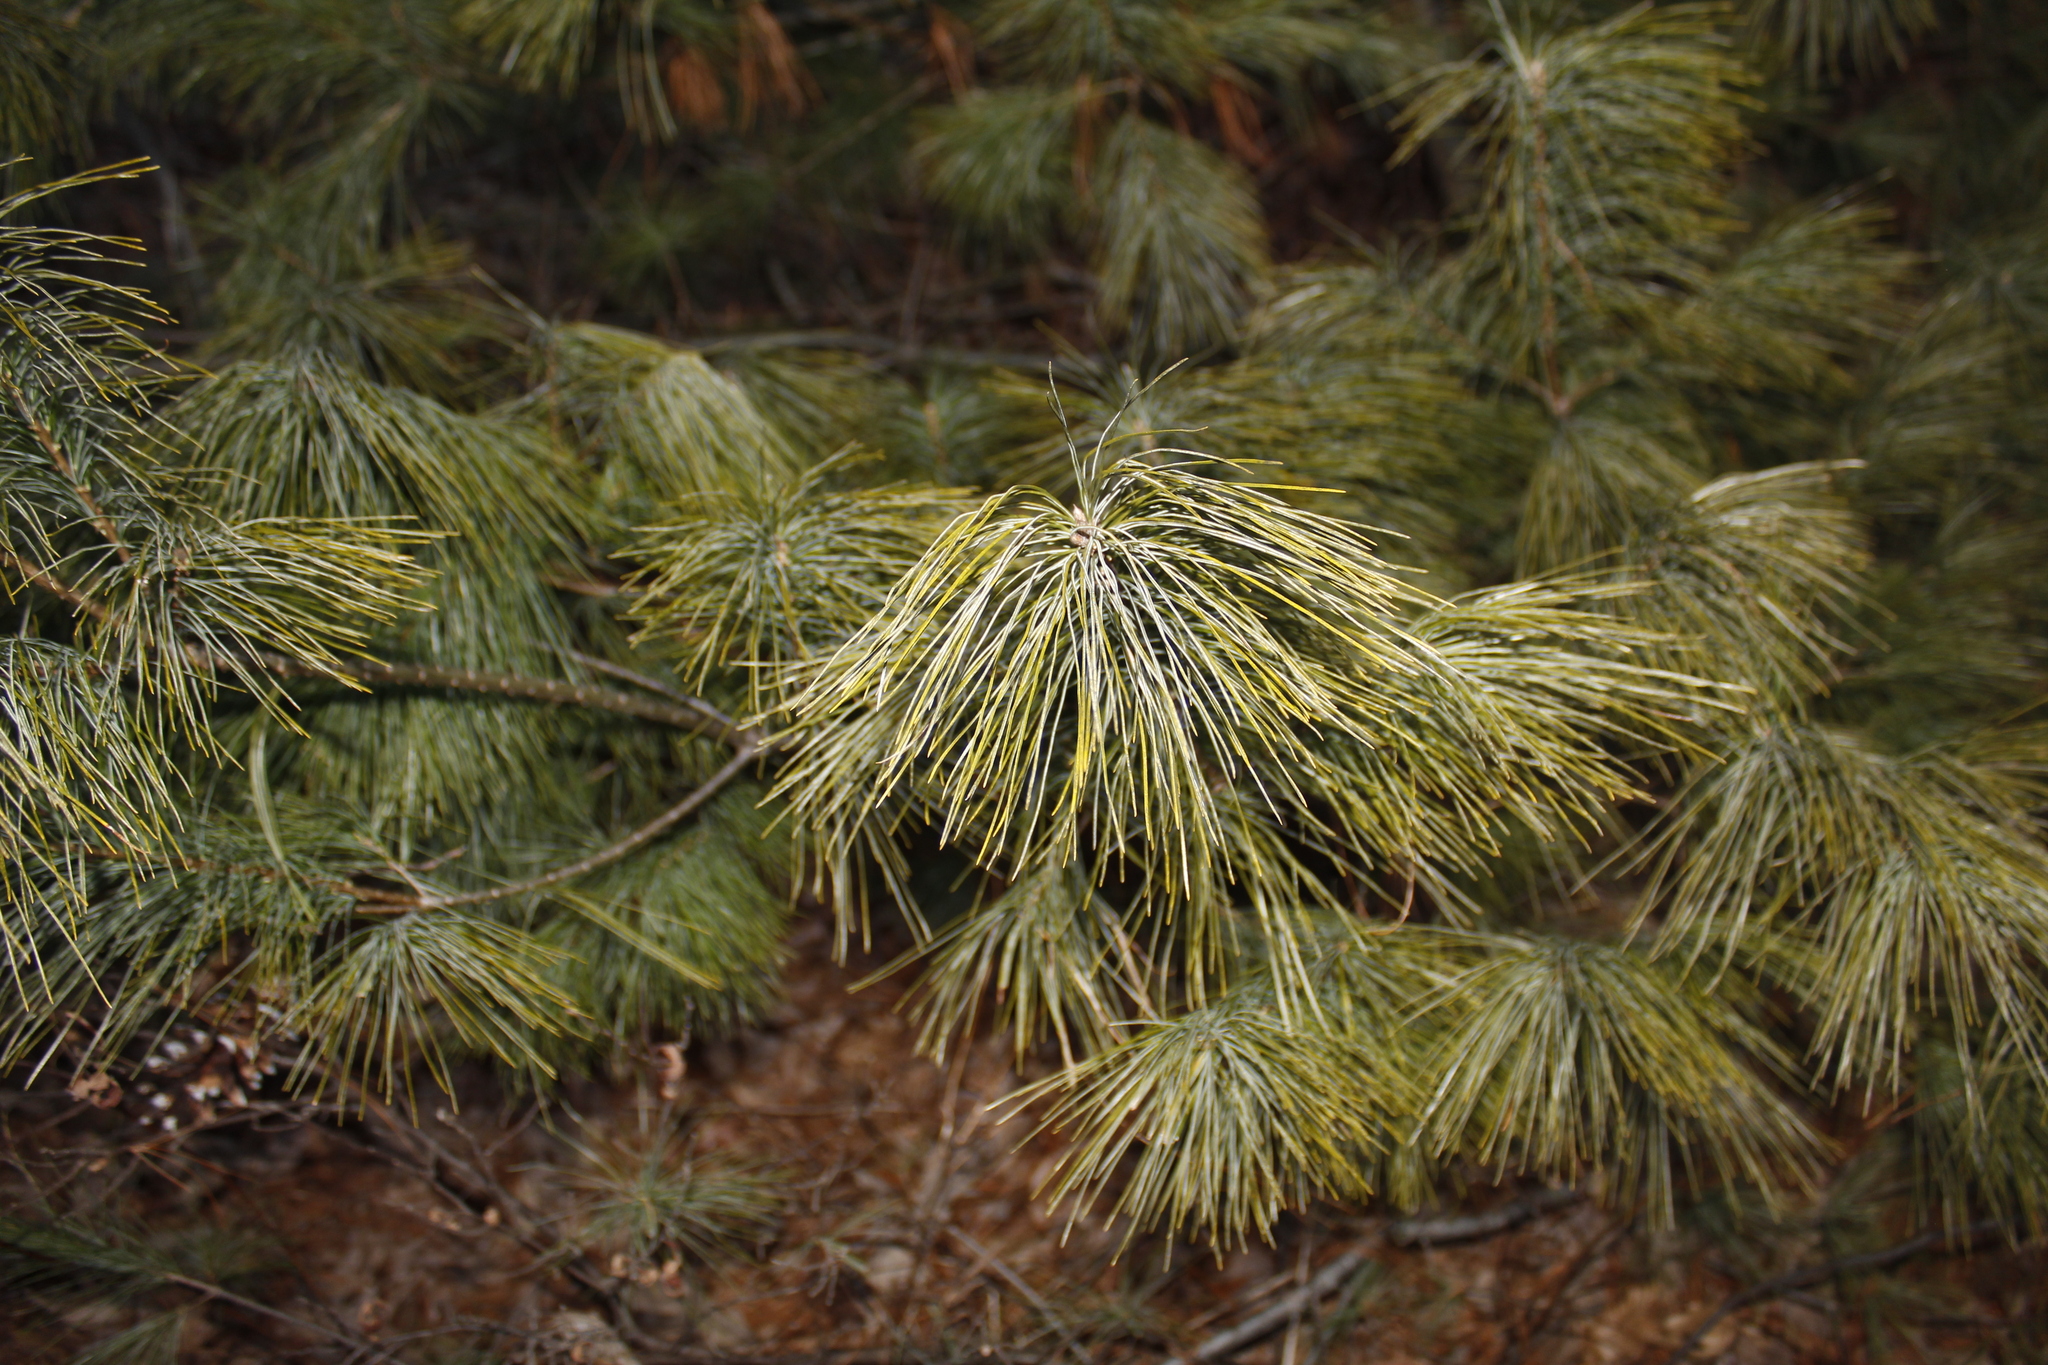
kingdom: Plantae
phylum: Tracheophyta
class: Pinopsida
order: Pinales
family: Pinaceae
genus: Pinus
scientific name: Pinus strobus
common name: Weymouth pine
